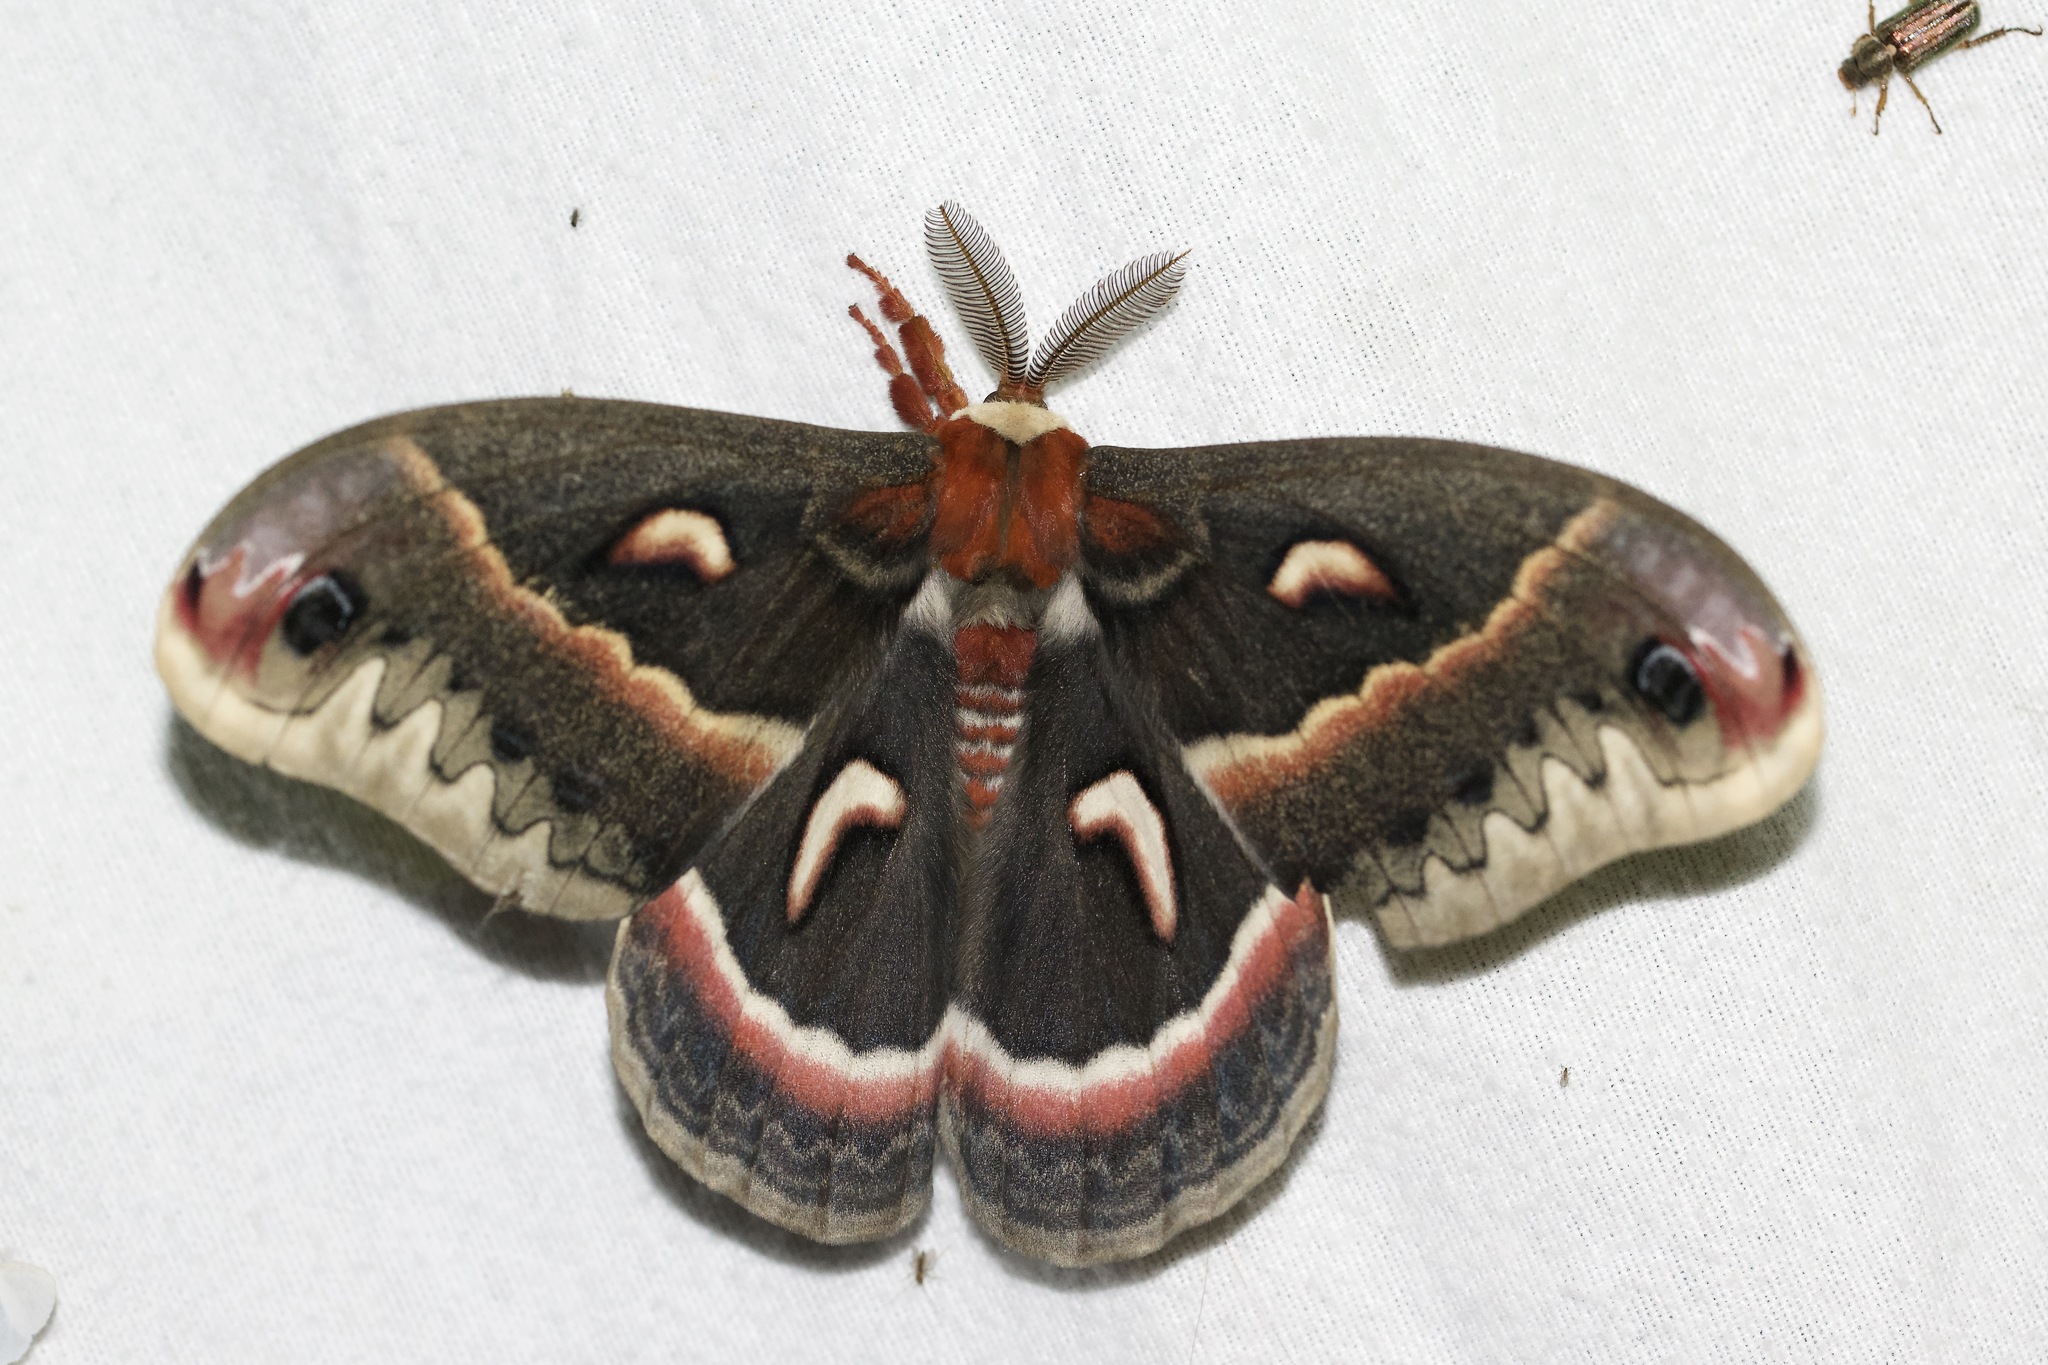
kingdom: Animalia
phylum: Arthropoda
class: Insecta
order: Lepidoptera
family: Saturniidae
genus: Hyalophora
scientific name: Hyalophora cecropia
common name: Cecropia silkmoth
